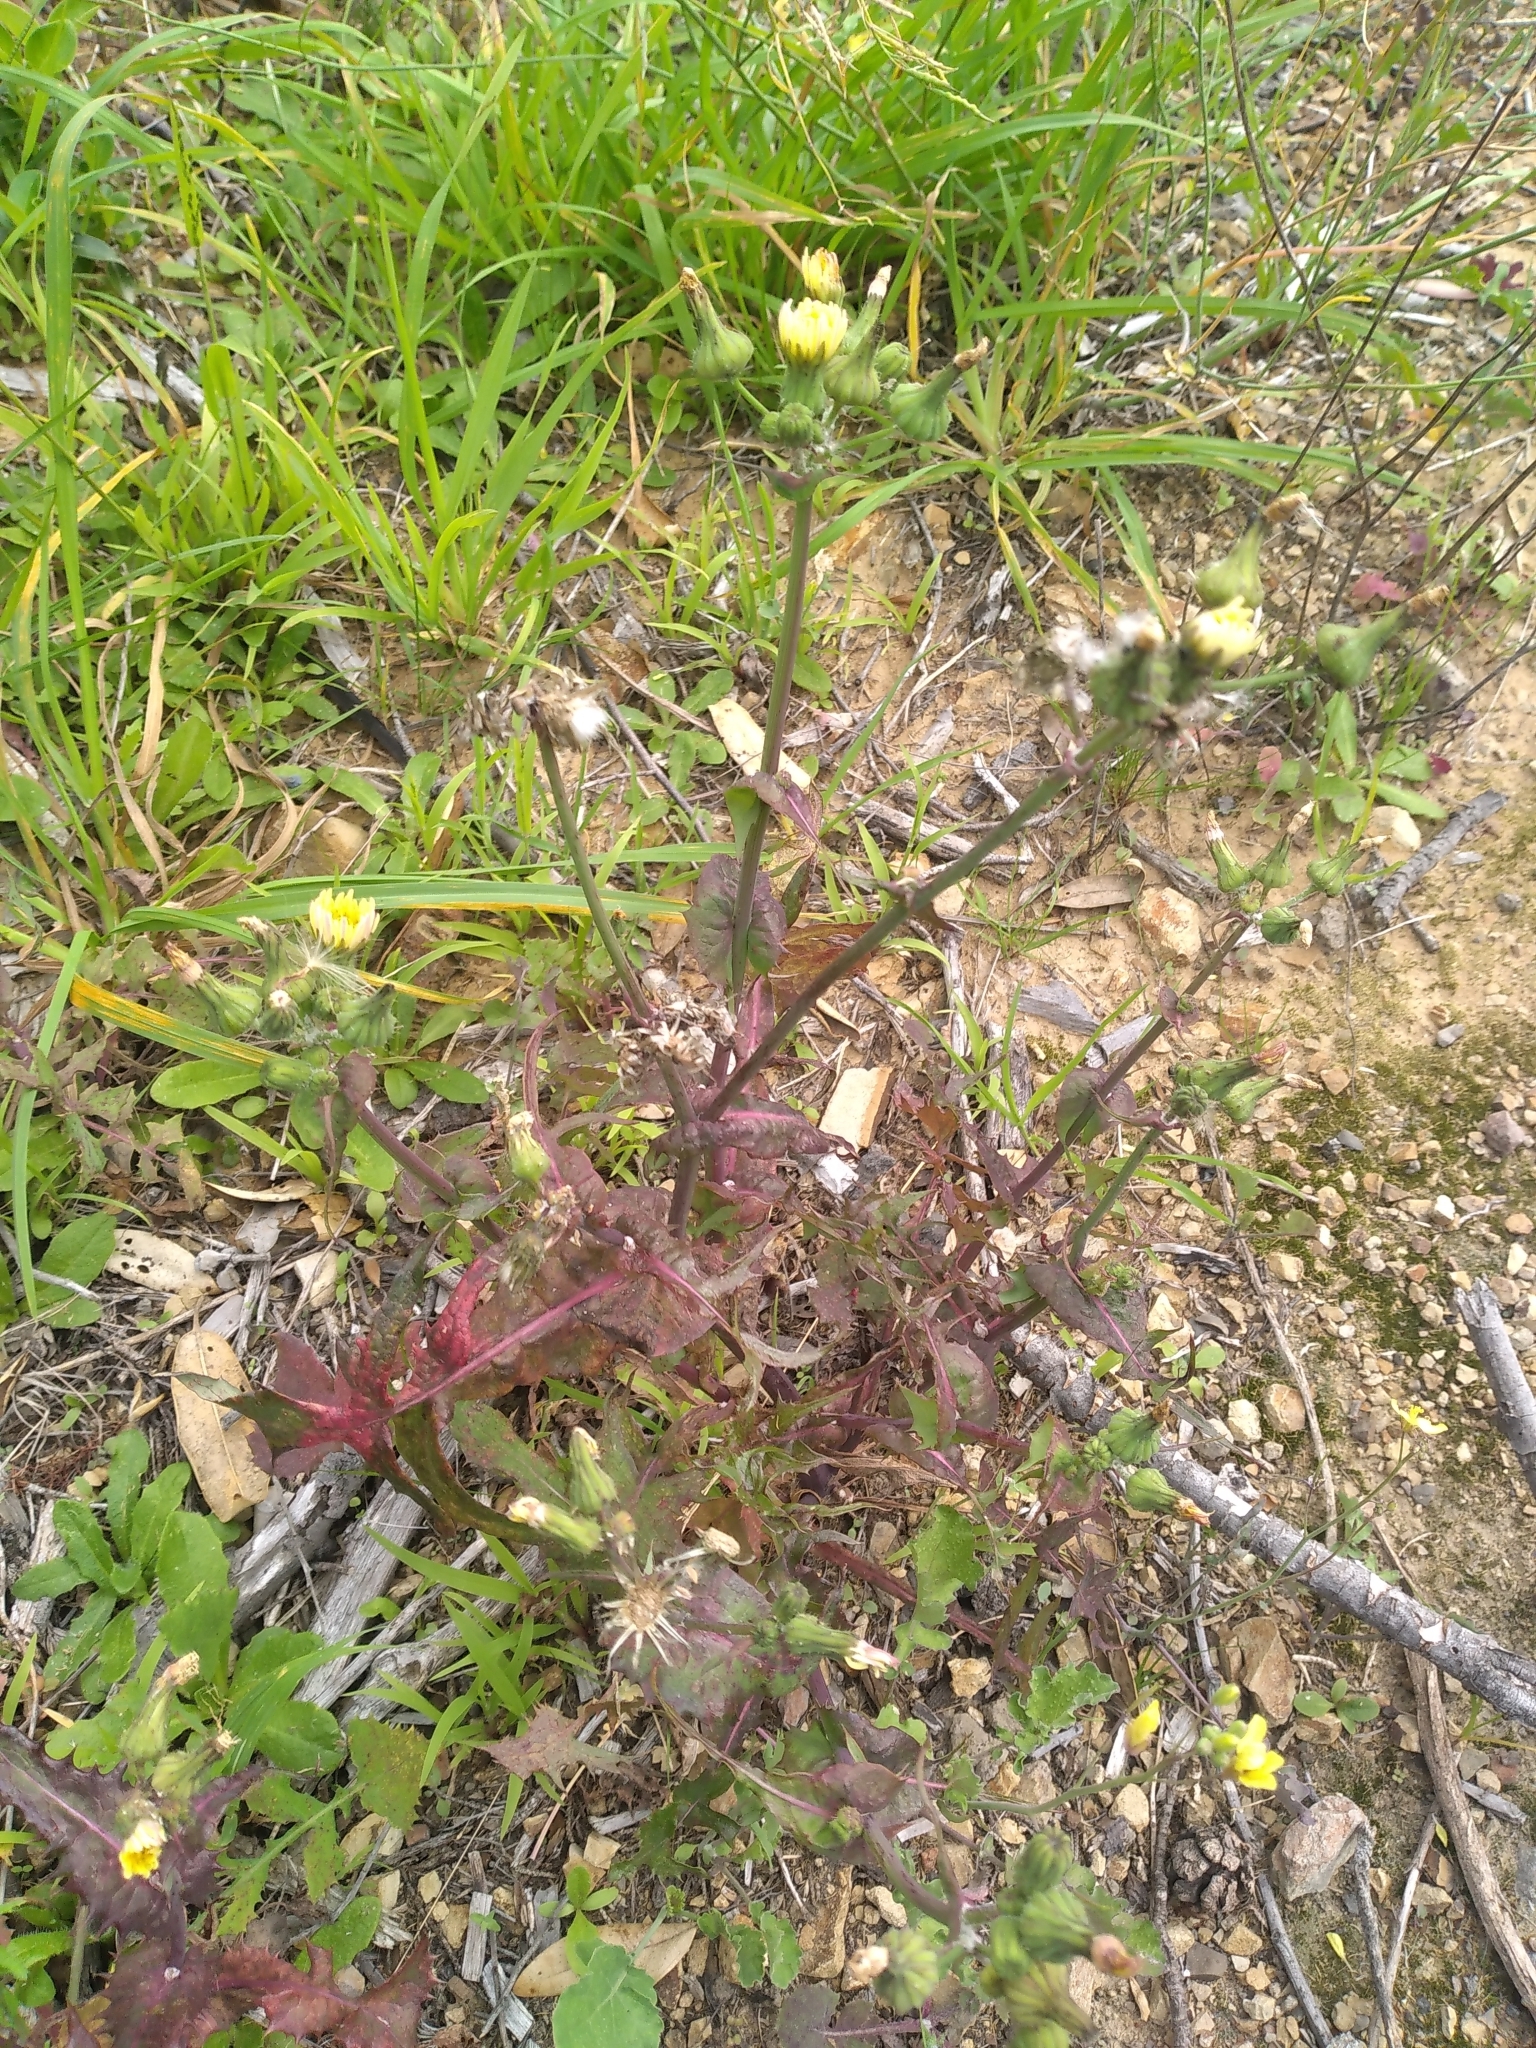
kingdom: Plantae
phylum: Tracheophyta
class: Magnoliopsida
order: Asterales
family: Asteraceae
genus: Sonchus
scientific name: Sonchus asper
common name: Prickly sow-thistle
